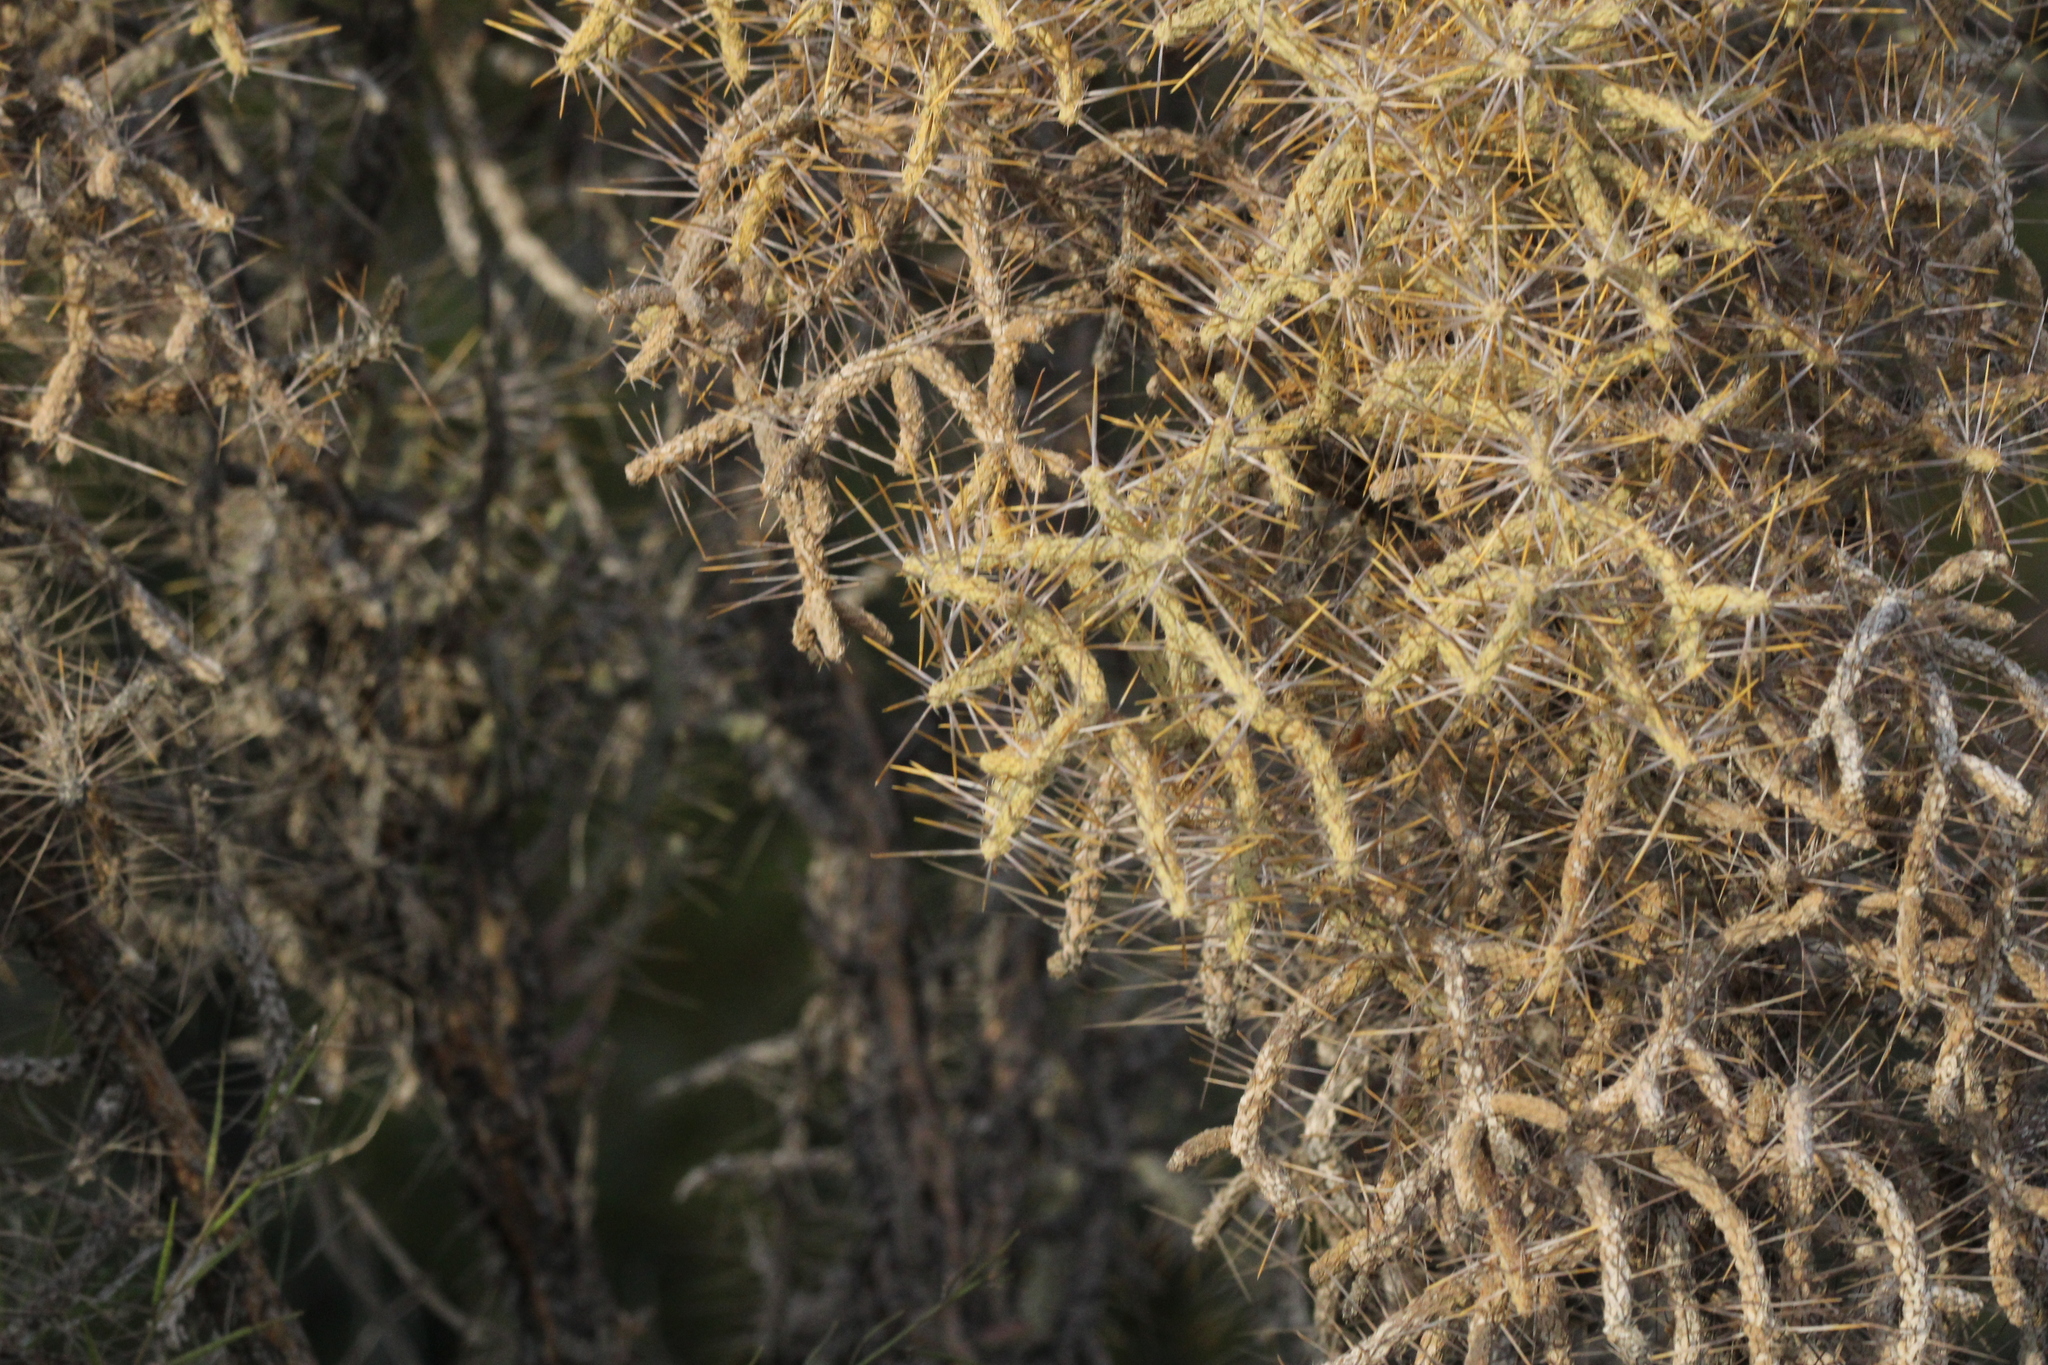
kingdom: Plantae
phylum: Tracheophyta
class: Magnoliopsida
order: Caryophyllales
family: Cactaceae
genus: Cylindropuntia
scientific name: Cylindropuntia ramosissima
